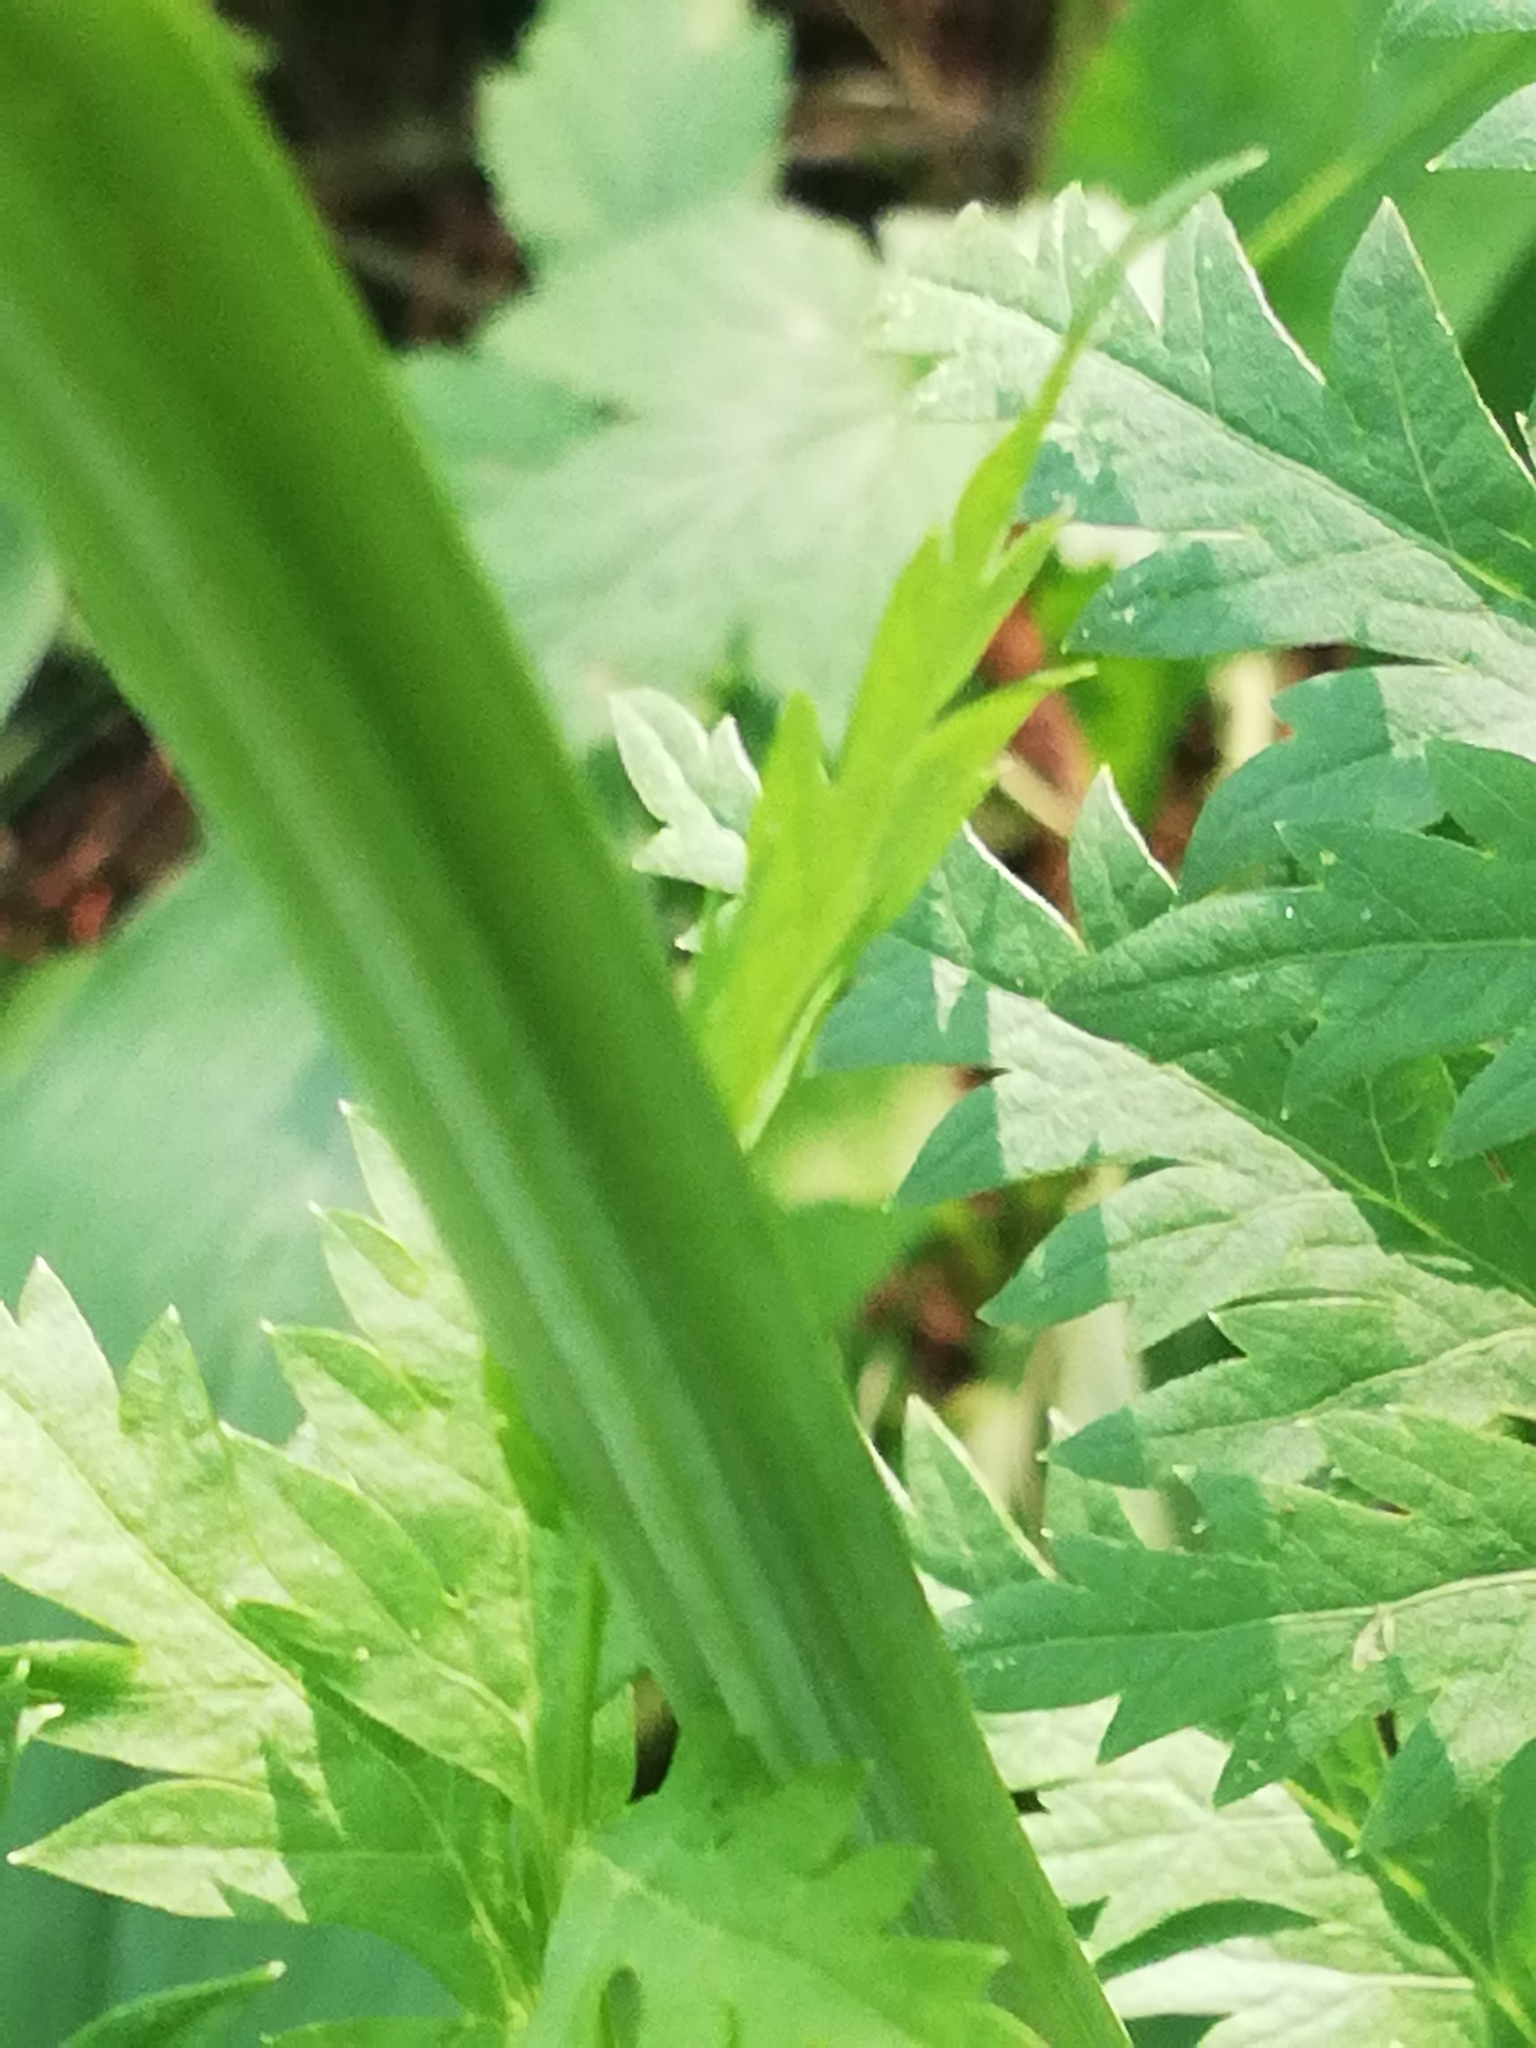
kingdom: Plantae
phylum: Tracheophyta
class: Magnoliopsida
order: Apiales
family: Apiaceae
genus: Seseli
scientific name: Seseli libanotis
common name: Mooncarrot
